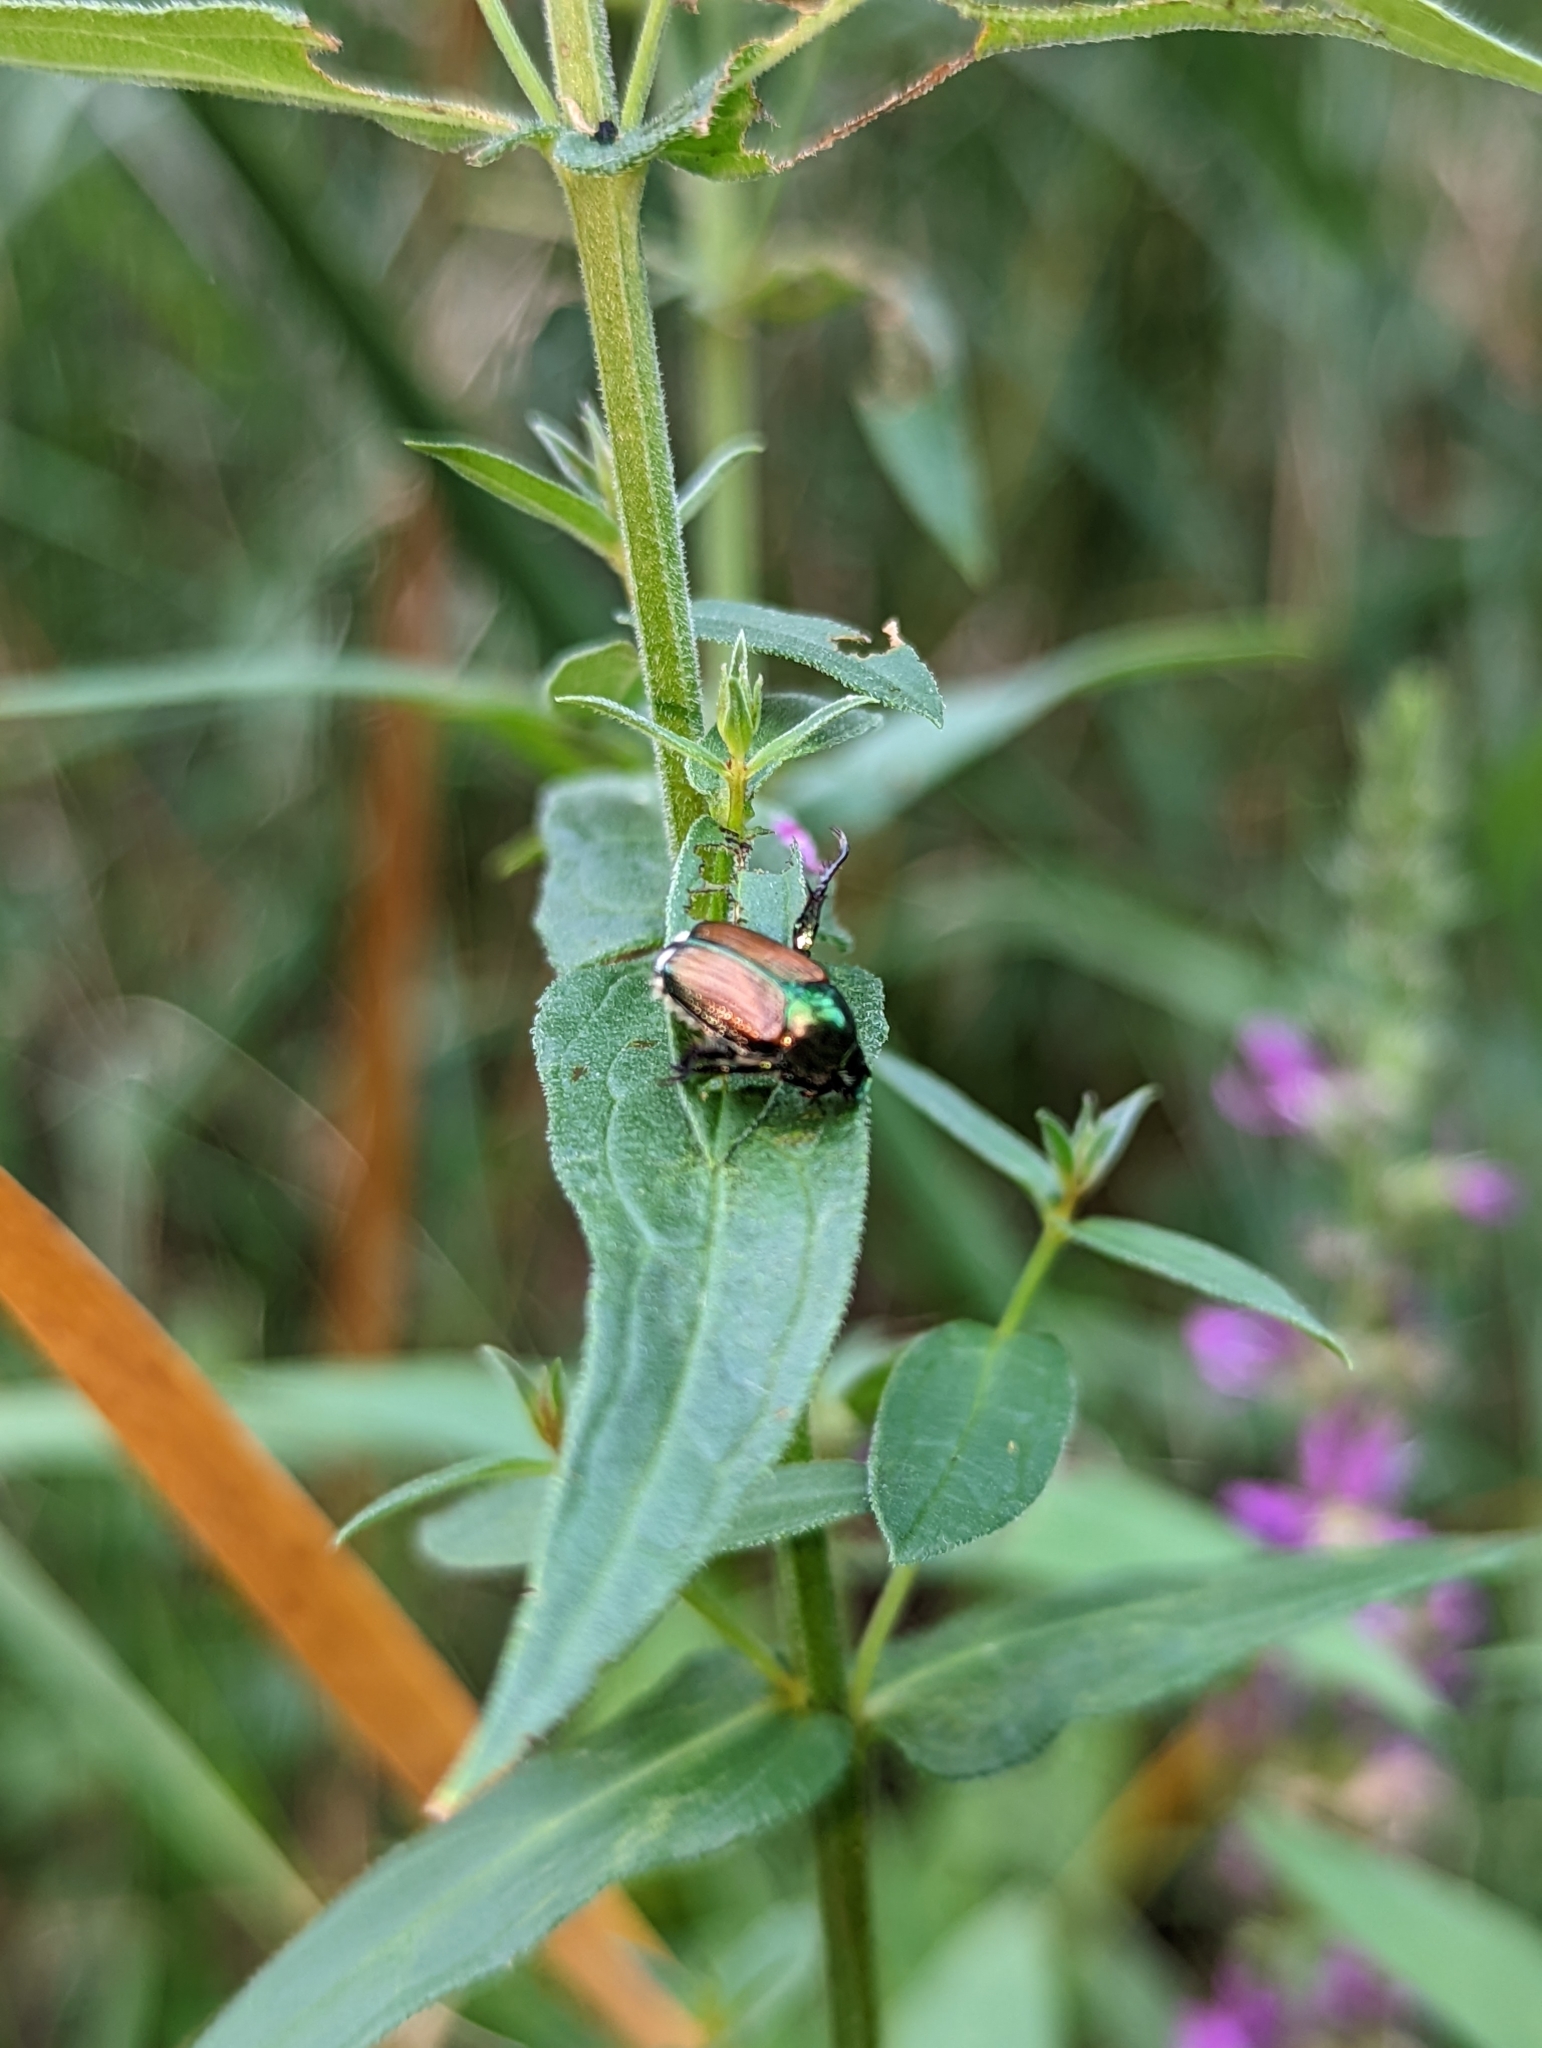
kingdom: Animalia
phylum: Arthropoda
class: Insecta
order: Coleoptera
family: Scarabaeidae
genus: Popillia
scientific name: Popillia japonica
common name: Japanese beetle
